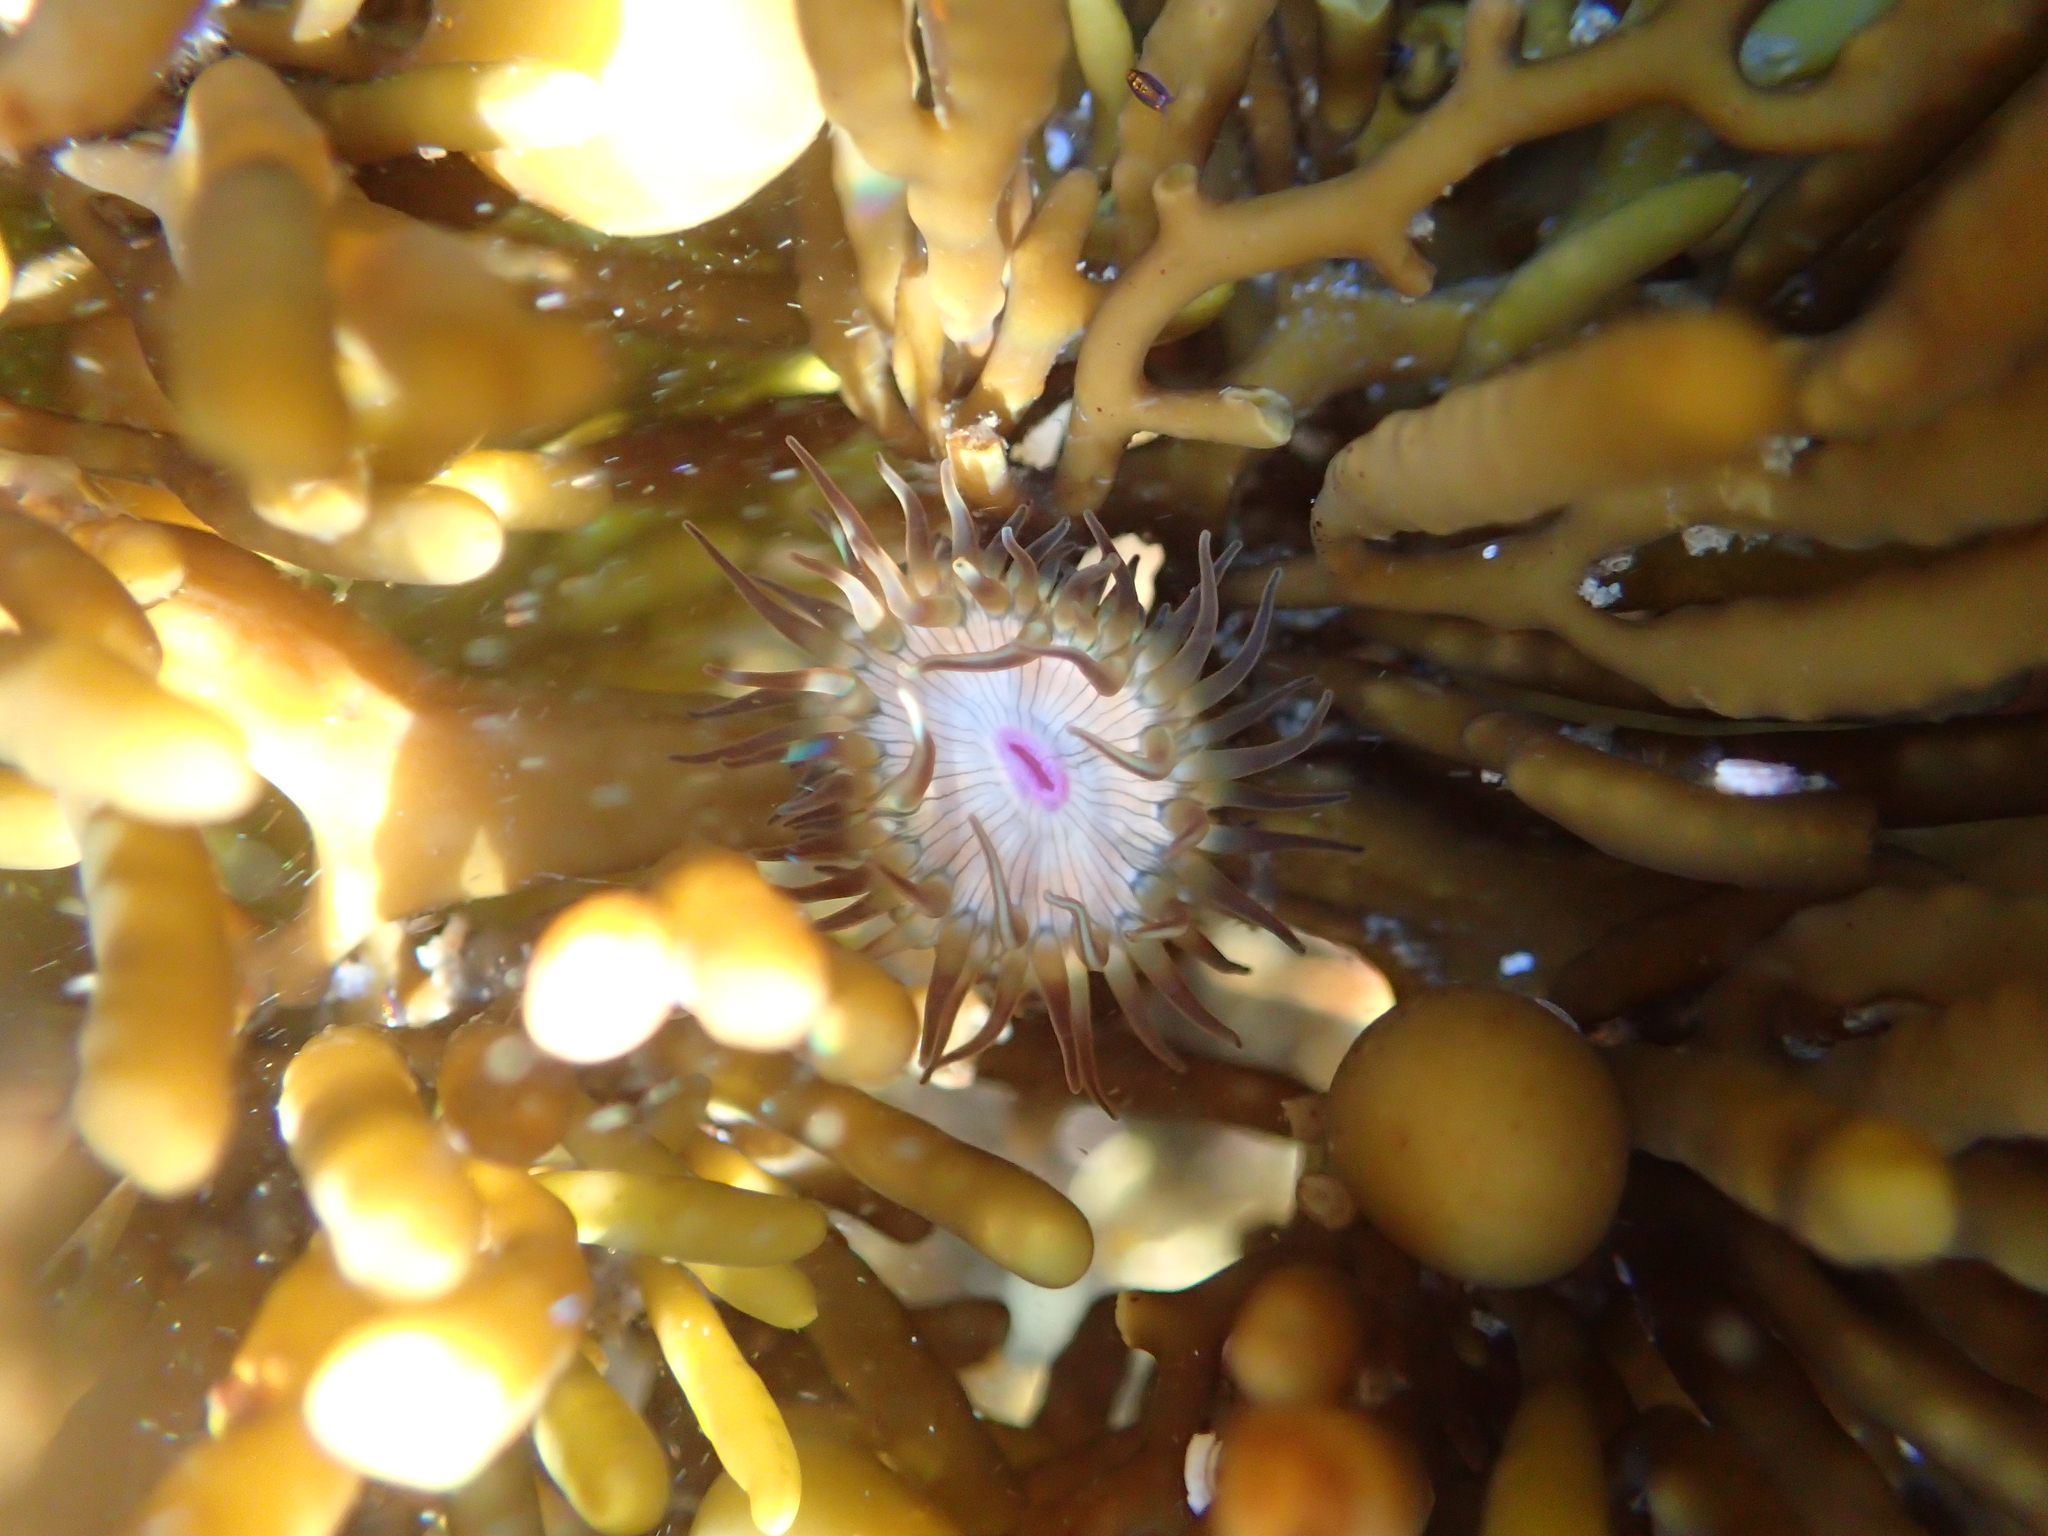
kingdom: Animalia
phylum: Cnidaria
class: Anthozoa
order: Actiniaria
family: Hormathiidae
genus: Handactis
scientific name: Handactis nutrix
